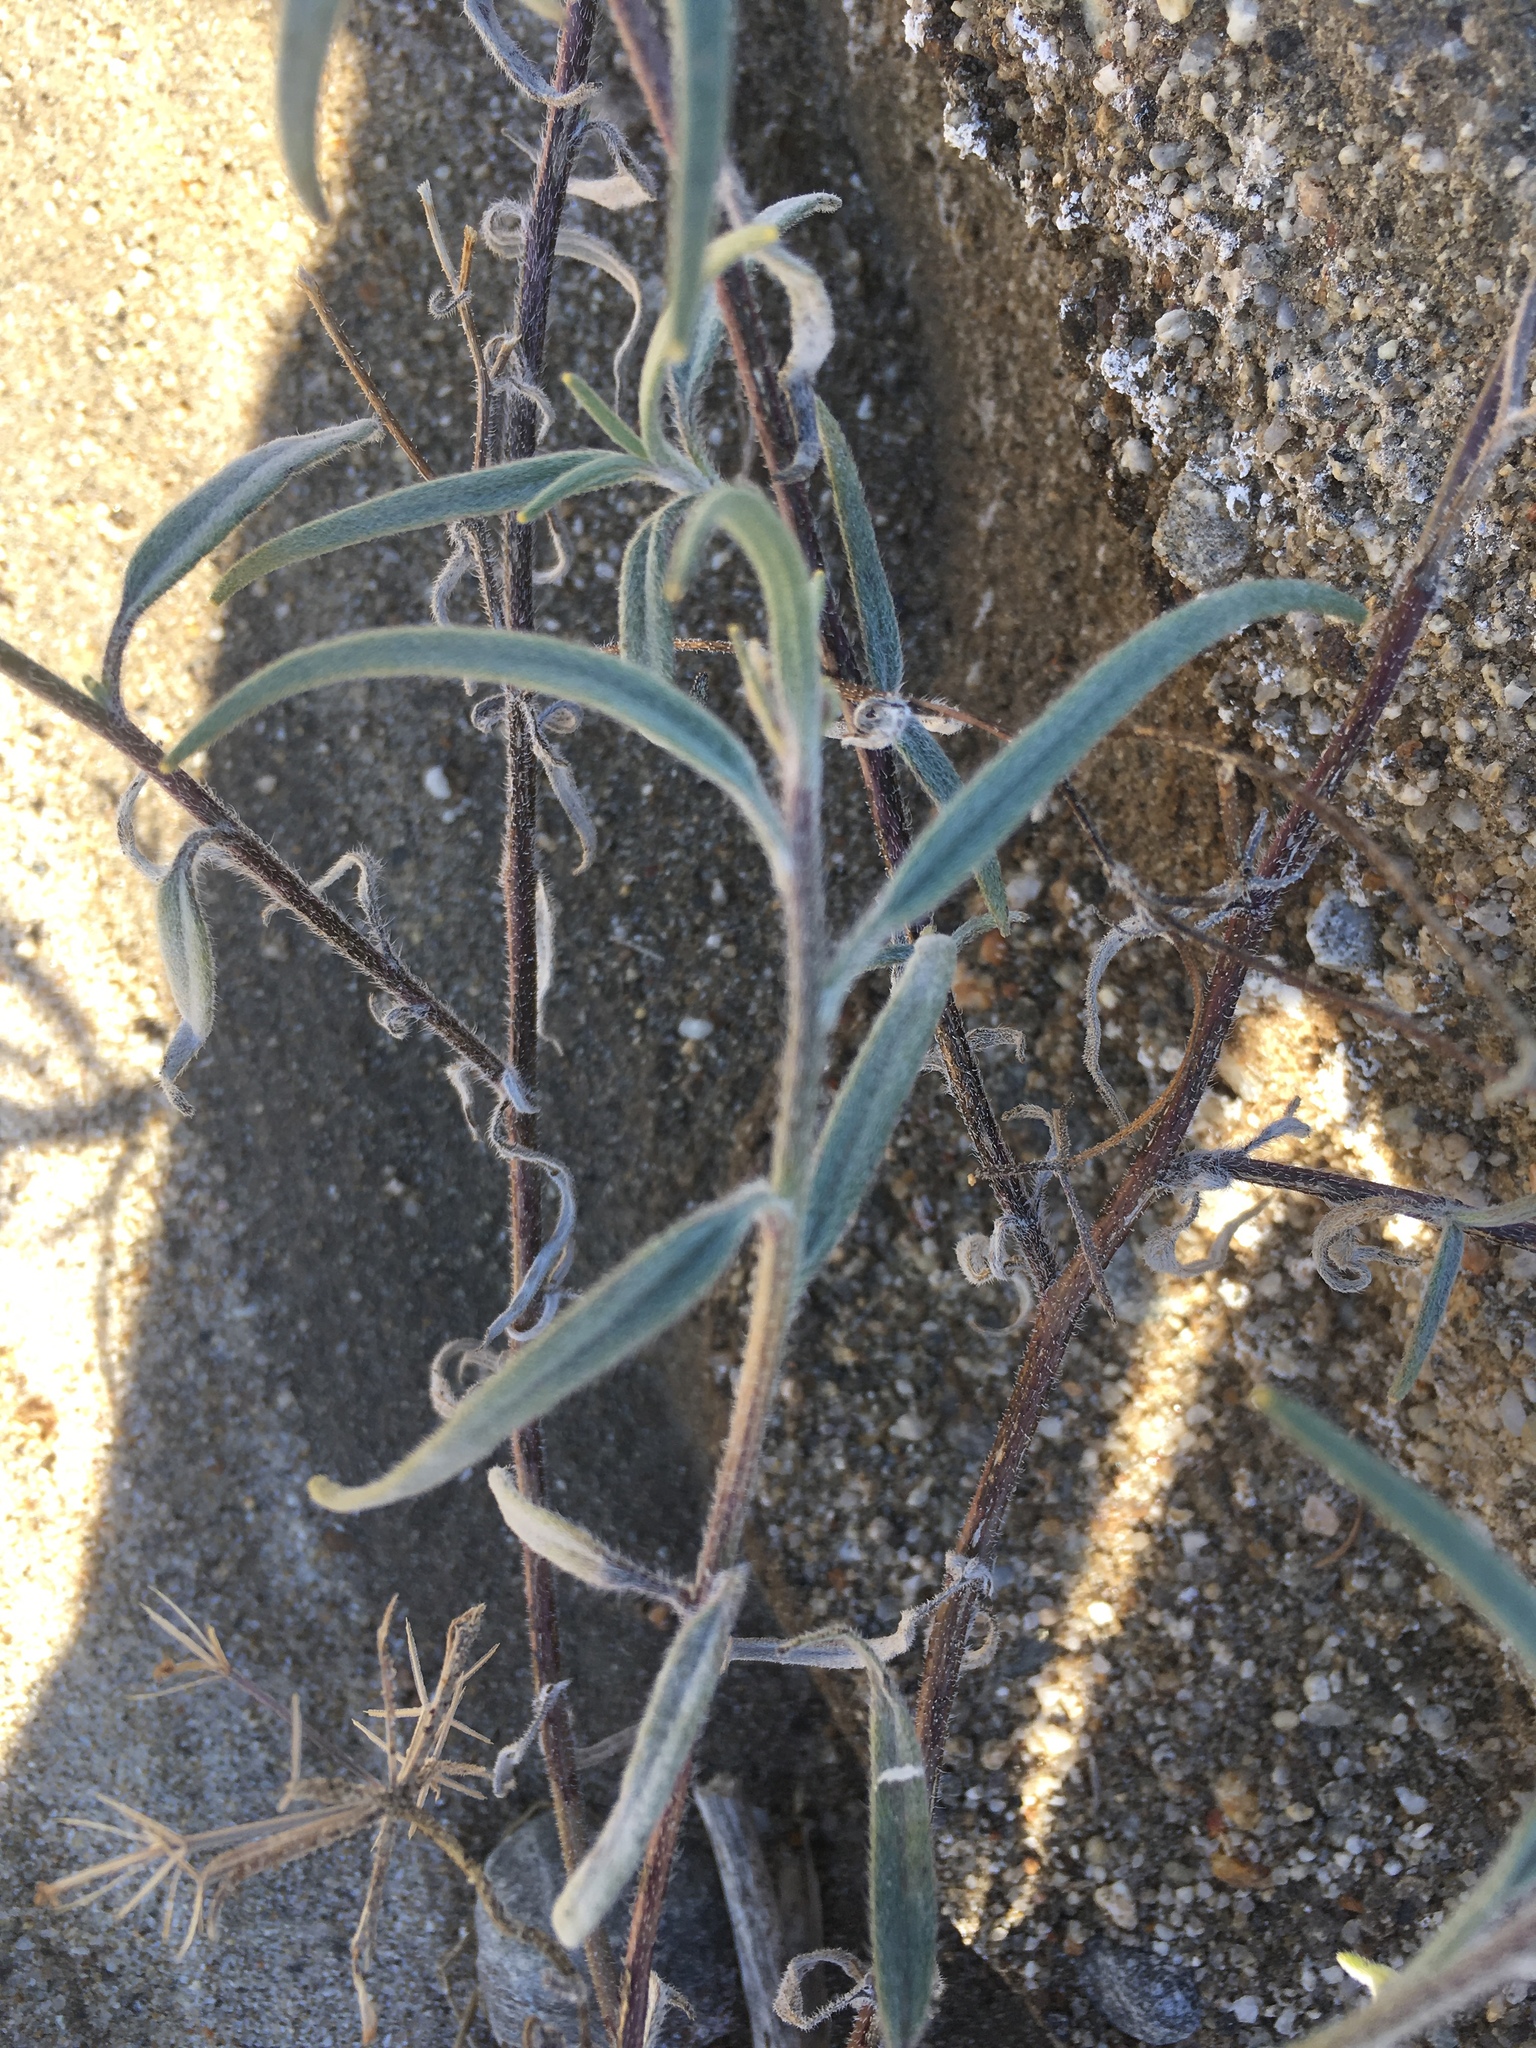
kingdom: Plantae
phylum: Tracheophyta
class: Magnoliopsida
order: Asterales
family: Asteraceae
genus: Palafoxia
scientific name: Palafoxia arida
